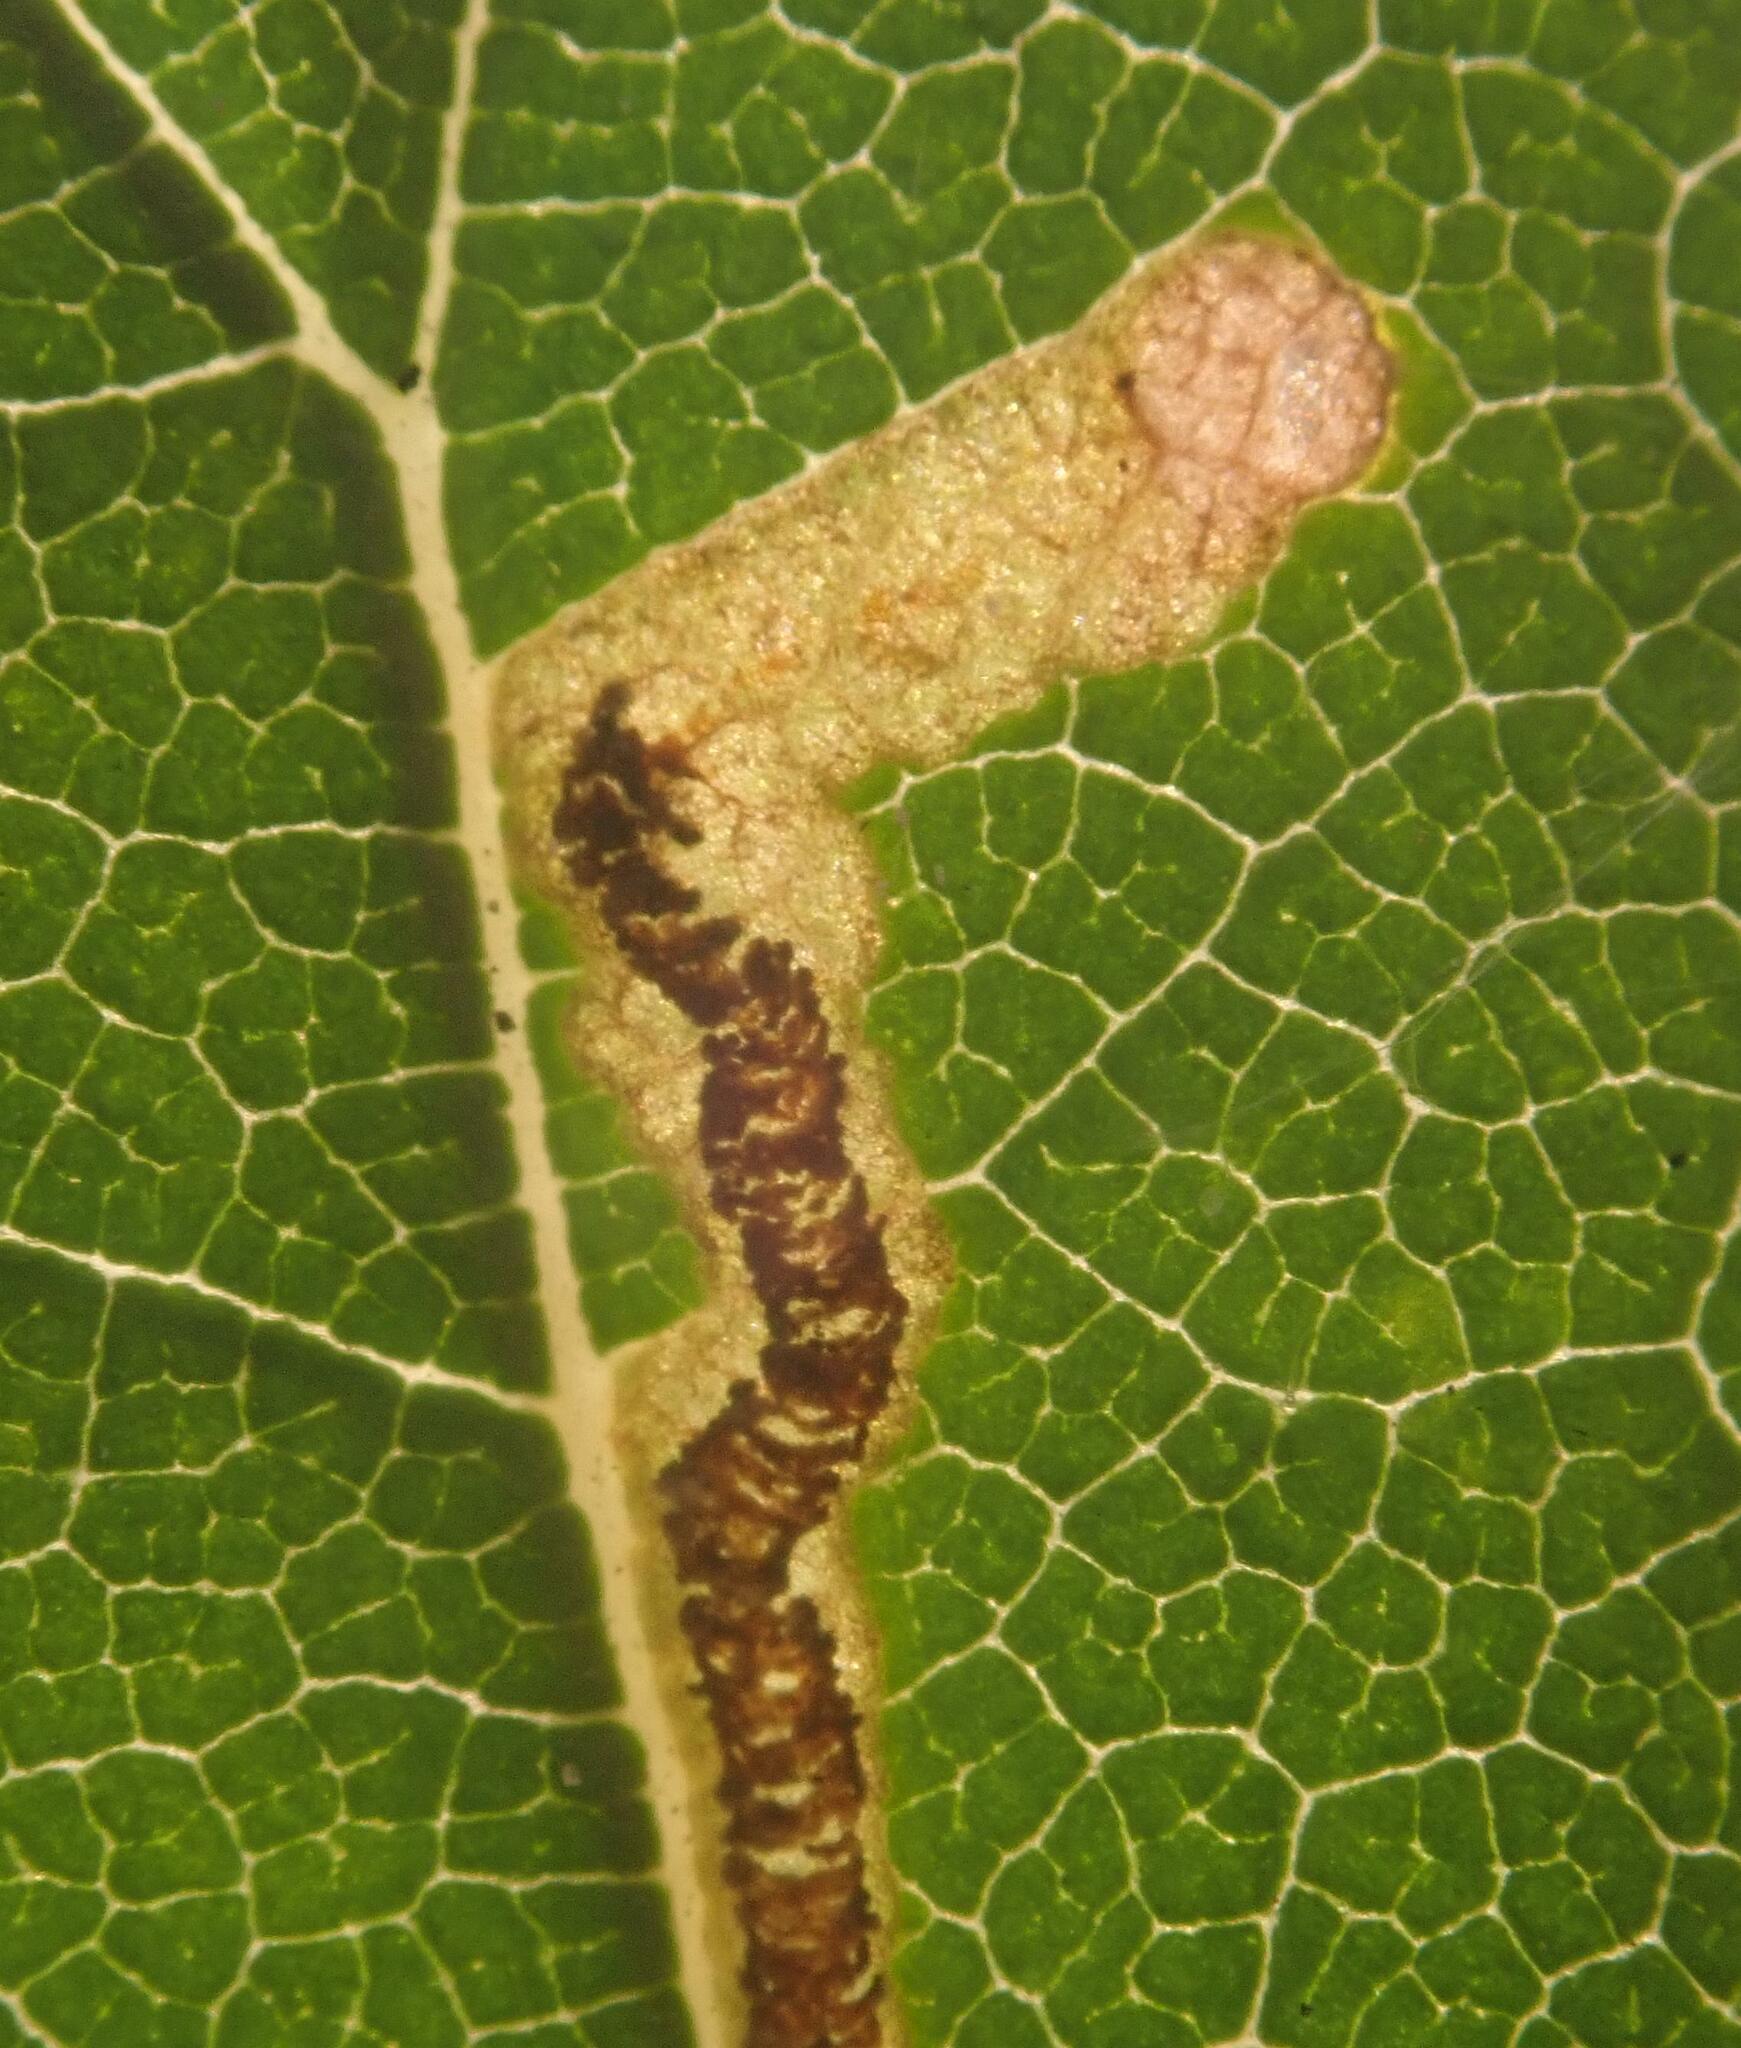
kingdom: Animalia
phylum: Arthropoda
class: Insecta
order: Lepidoptera
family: Nepticulidae
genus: Stigmella
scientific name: Stigmella lemniscella
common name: Red elm pigmy
